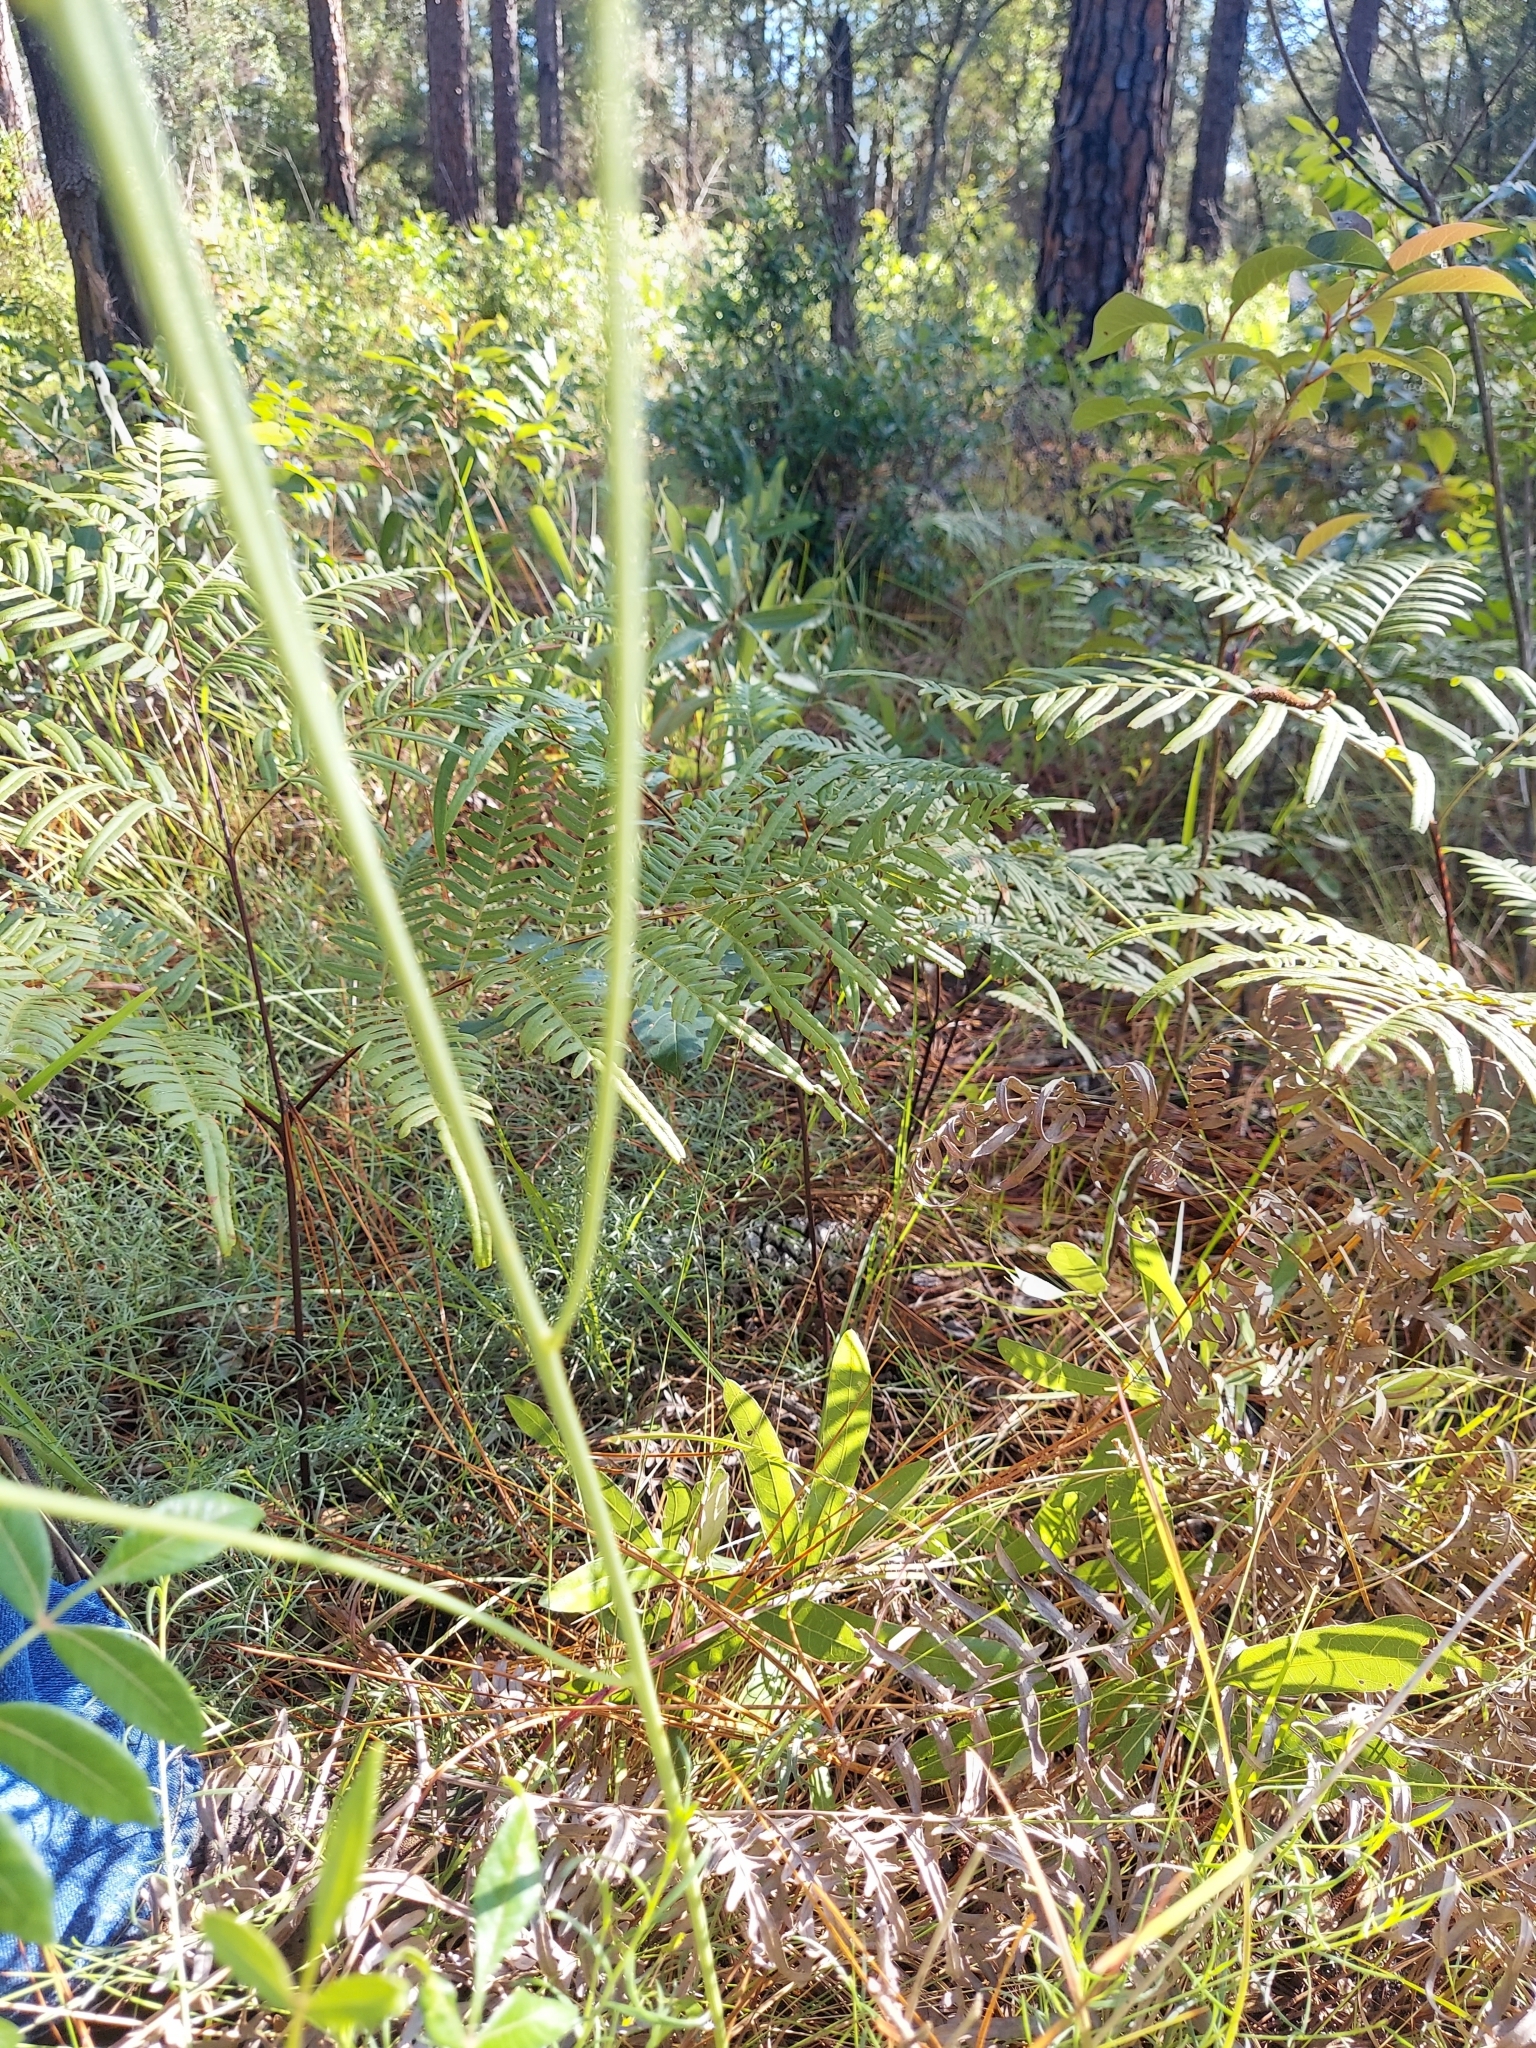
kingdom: Plantae
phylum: Tracheophyta
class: Magnoliopsida
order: Asterales
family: Asteraceae
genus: Lygodesmia
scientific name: Lygodesmia aphylla
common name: Rose-rush
